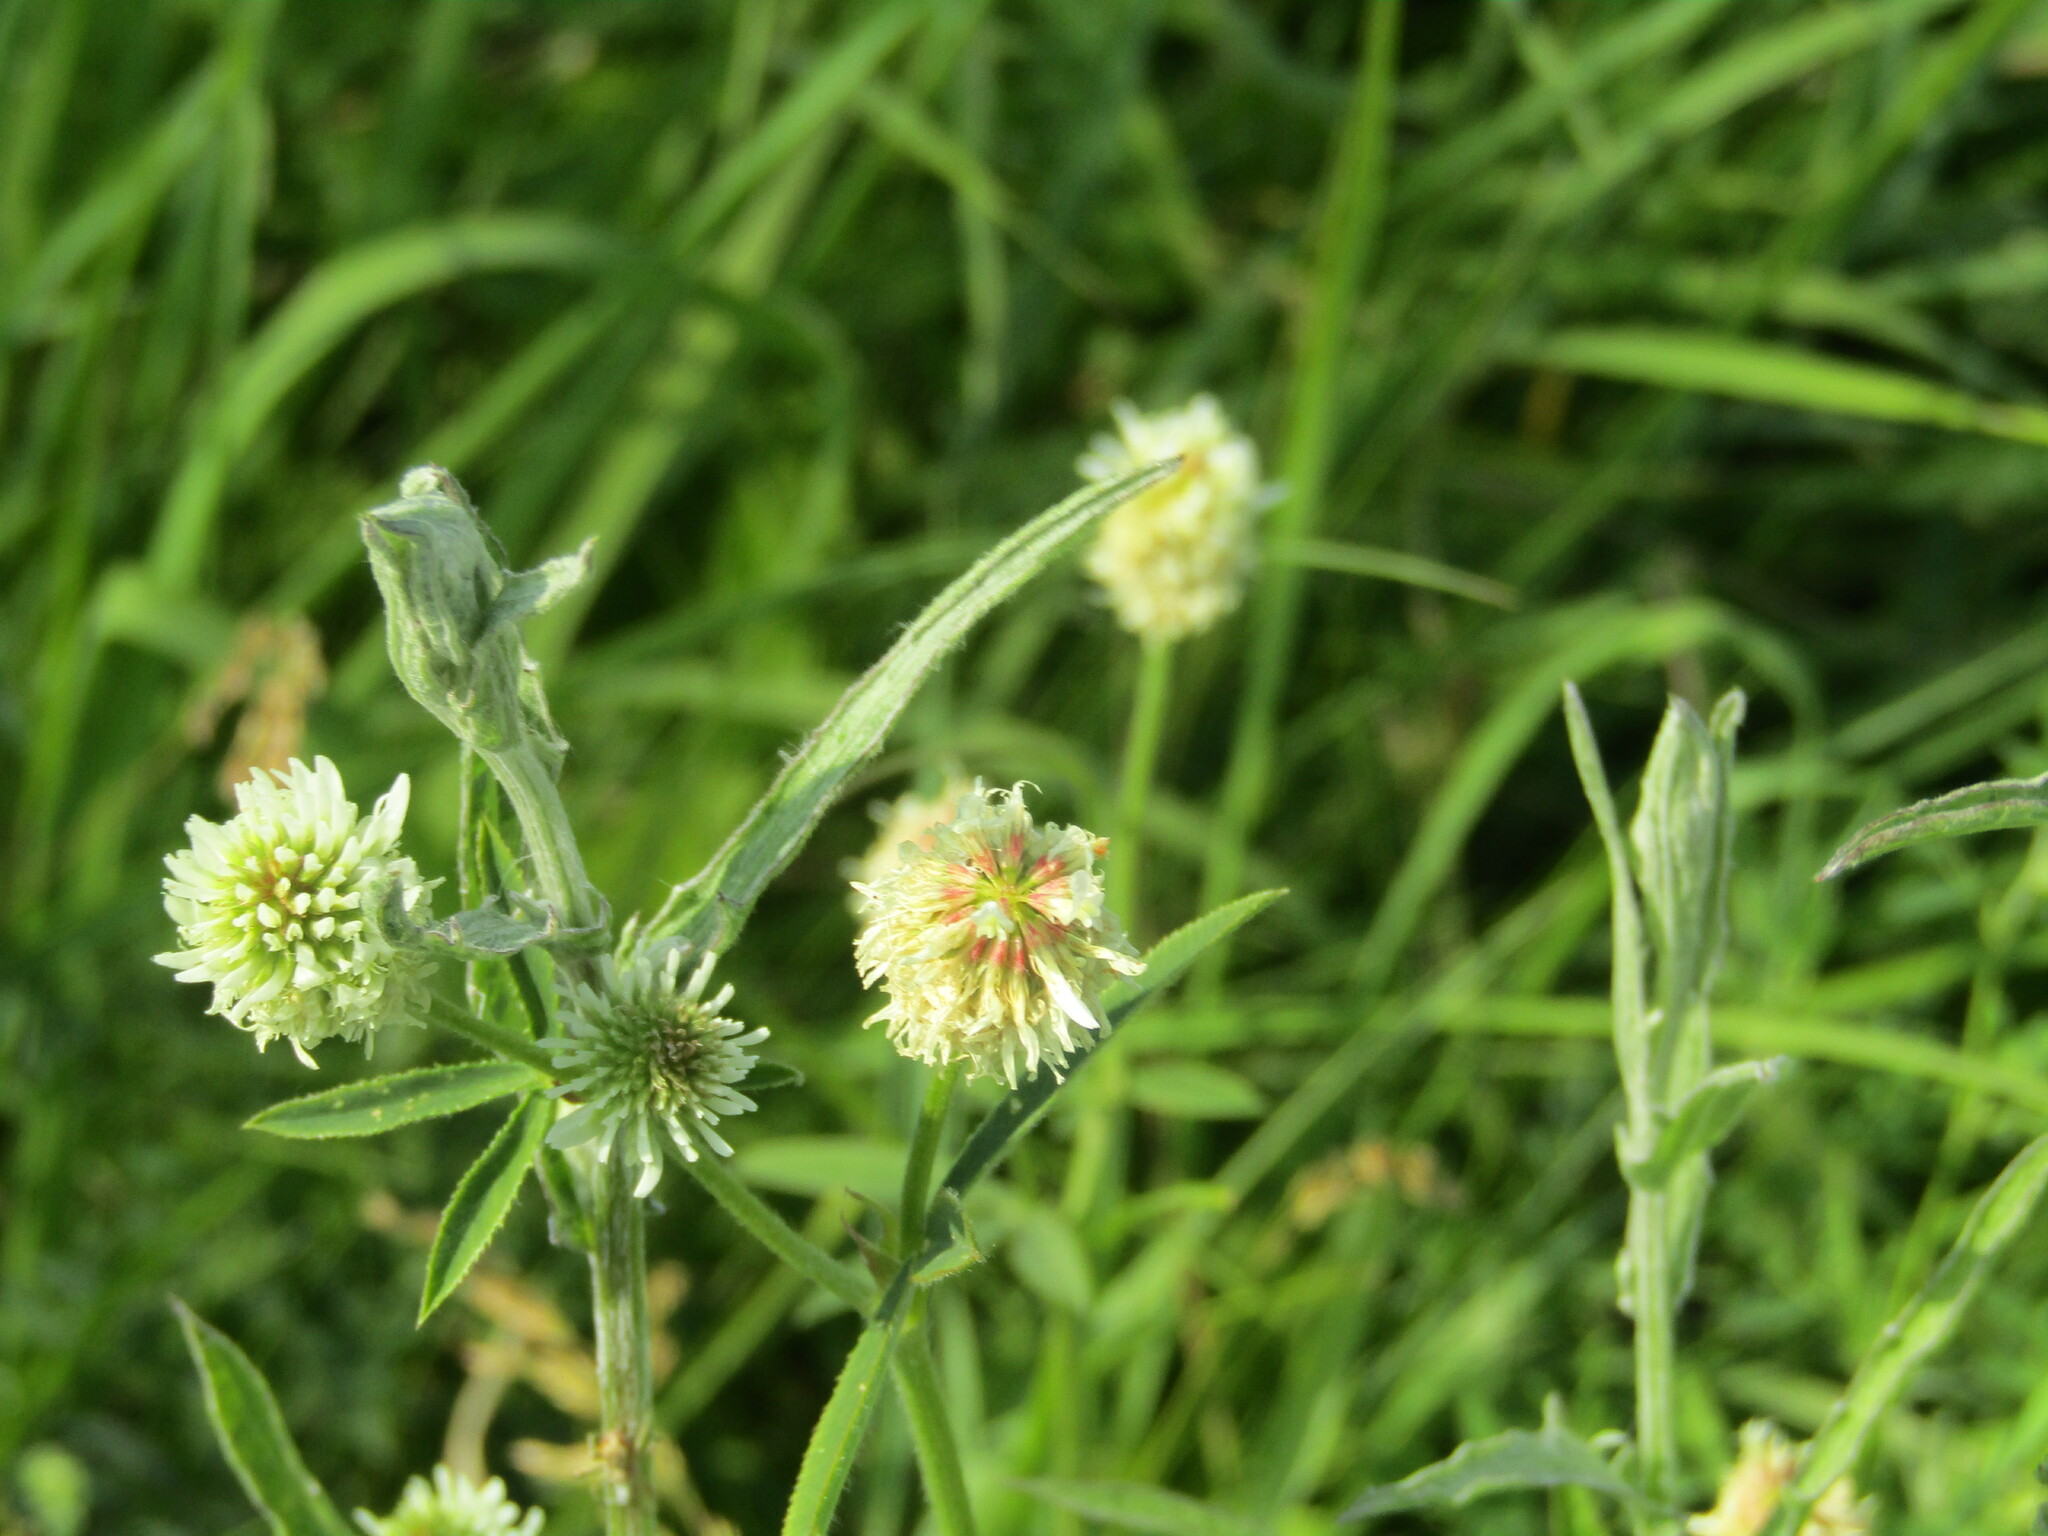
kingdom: Plantae
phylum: Tracheophyta
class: Magnoliopsida
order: Fabales
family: Fabaceae
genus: Trifolium
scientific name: Trifolium montanum
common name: Mountain clover
